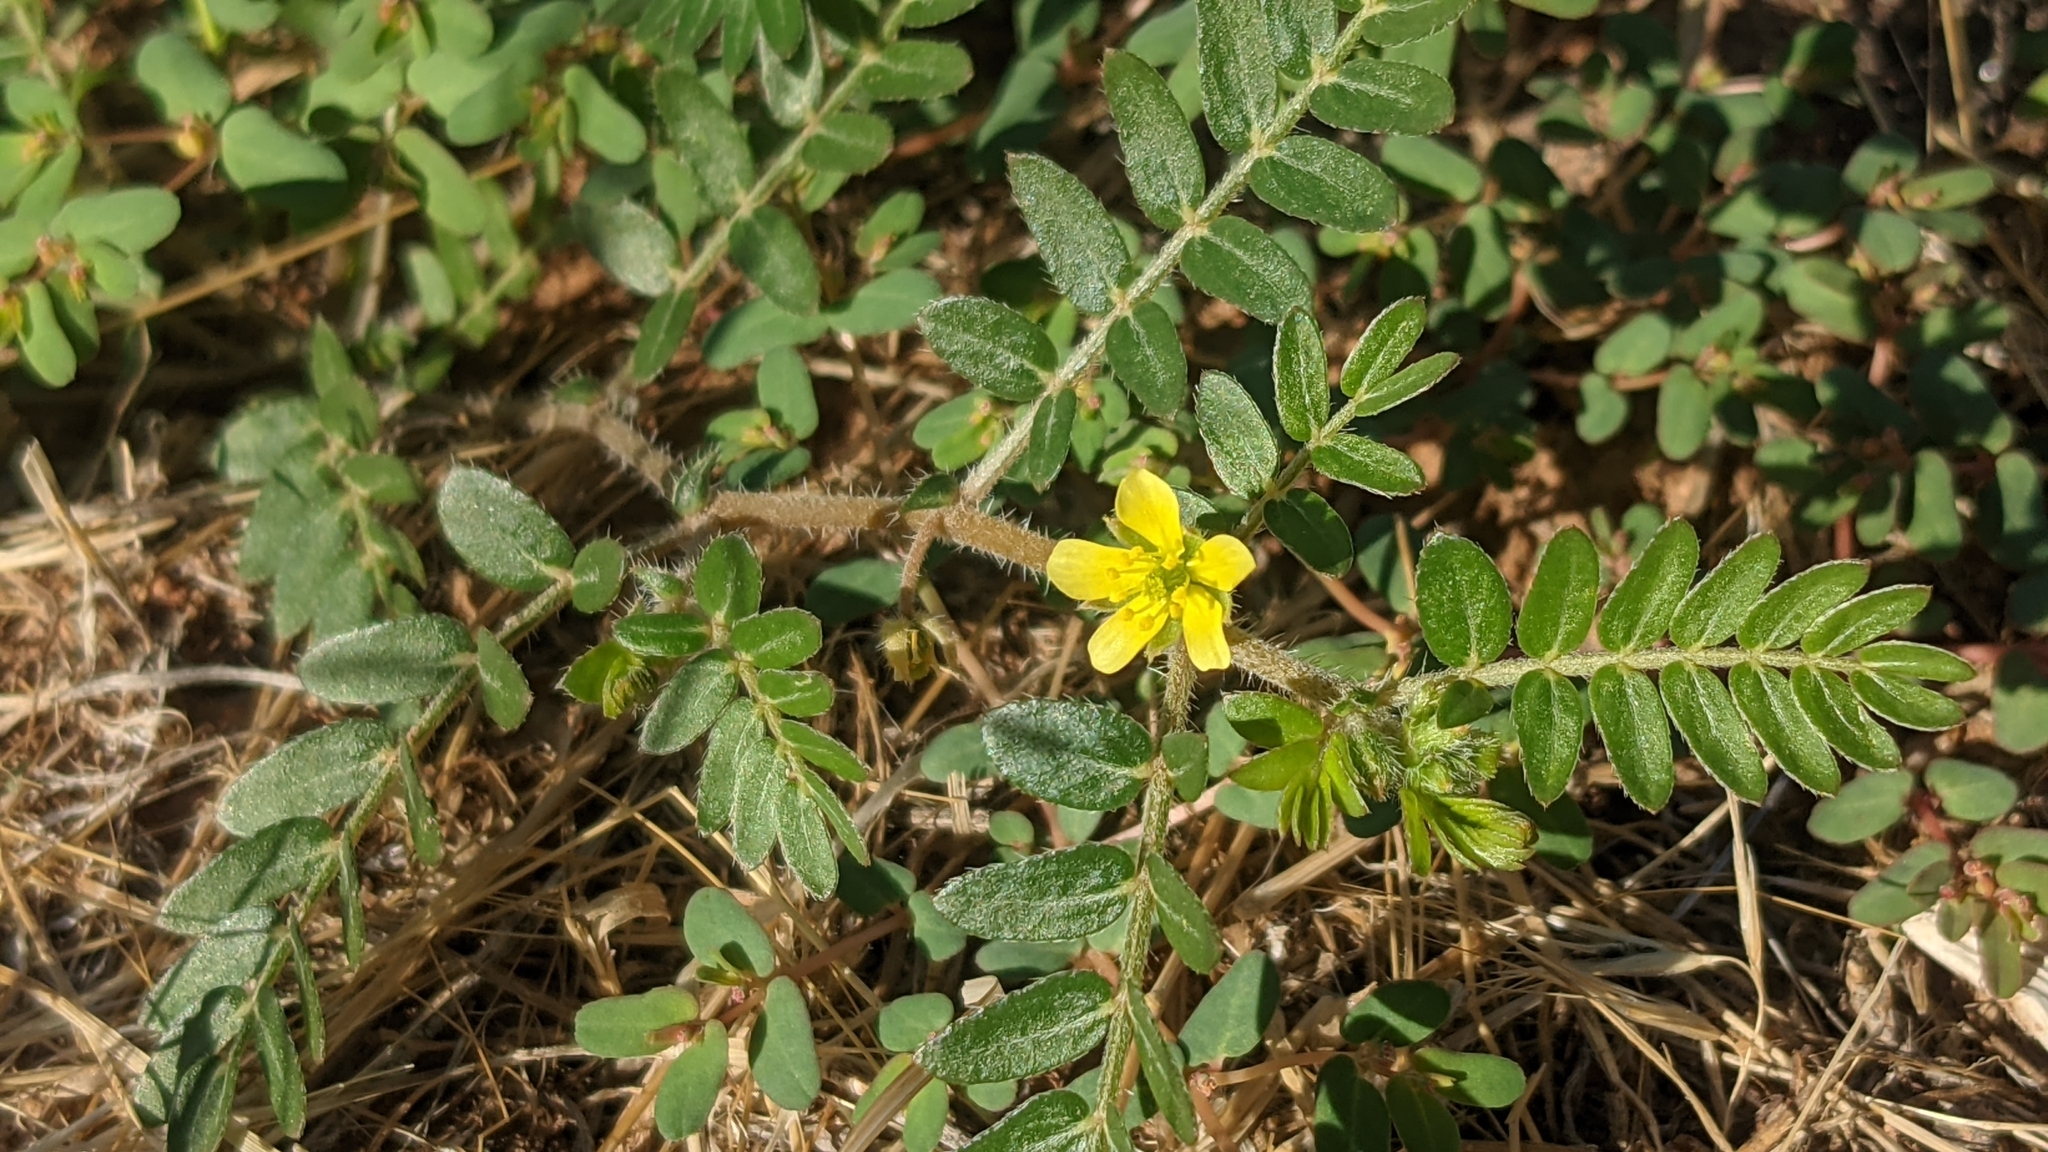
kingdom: Plantae
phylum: Tracheophyta
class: Magnoliopsida
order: Zygophyllales
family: Zygophyllaceae
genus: Tribulus
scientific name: Tribulus terrestris
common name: Puncturevine
